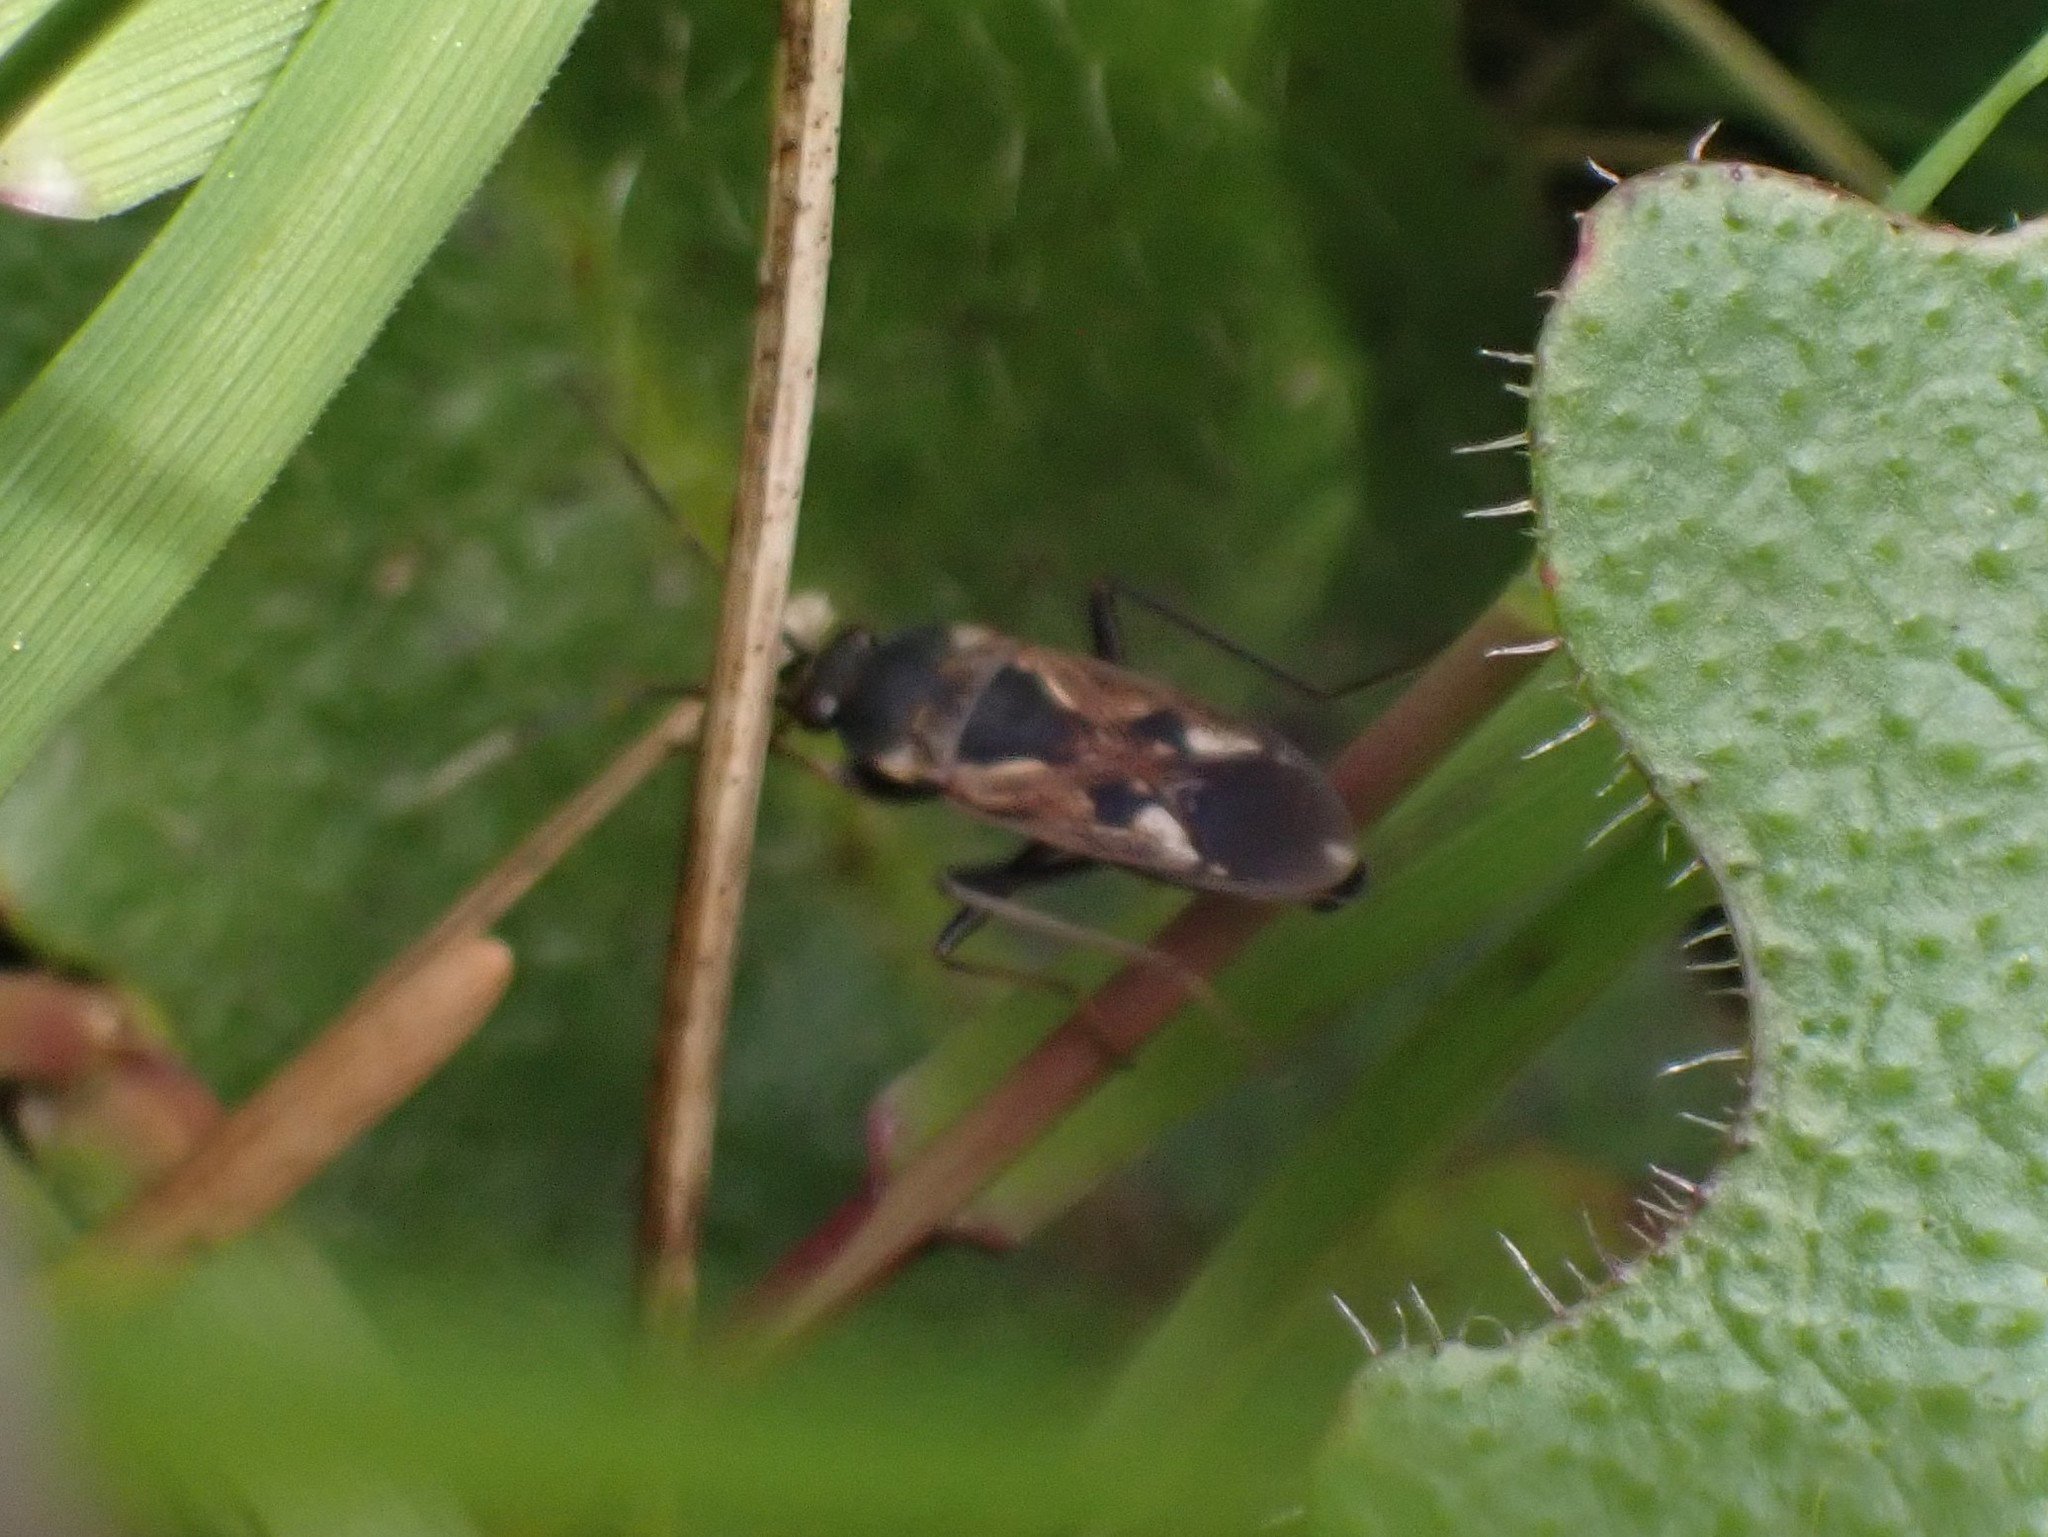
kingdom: Animalia
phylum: Arthropoda
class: Insecta
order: Hemiptera
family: Rhyparochromidae
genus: Rhyparochromus
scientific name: Rhyparochromus vulgaris
